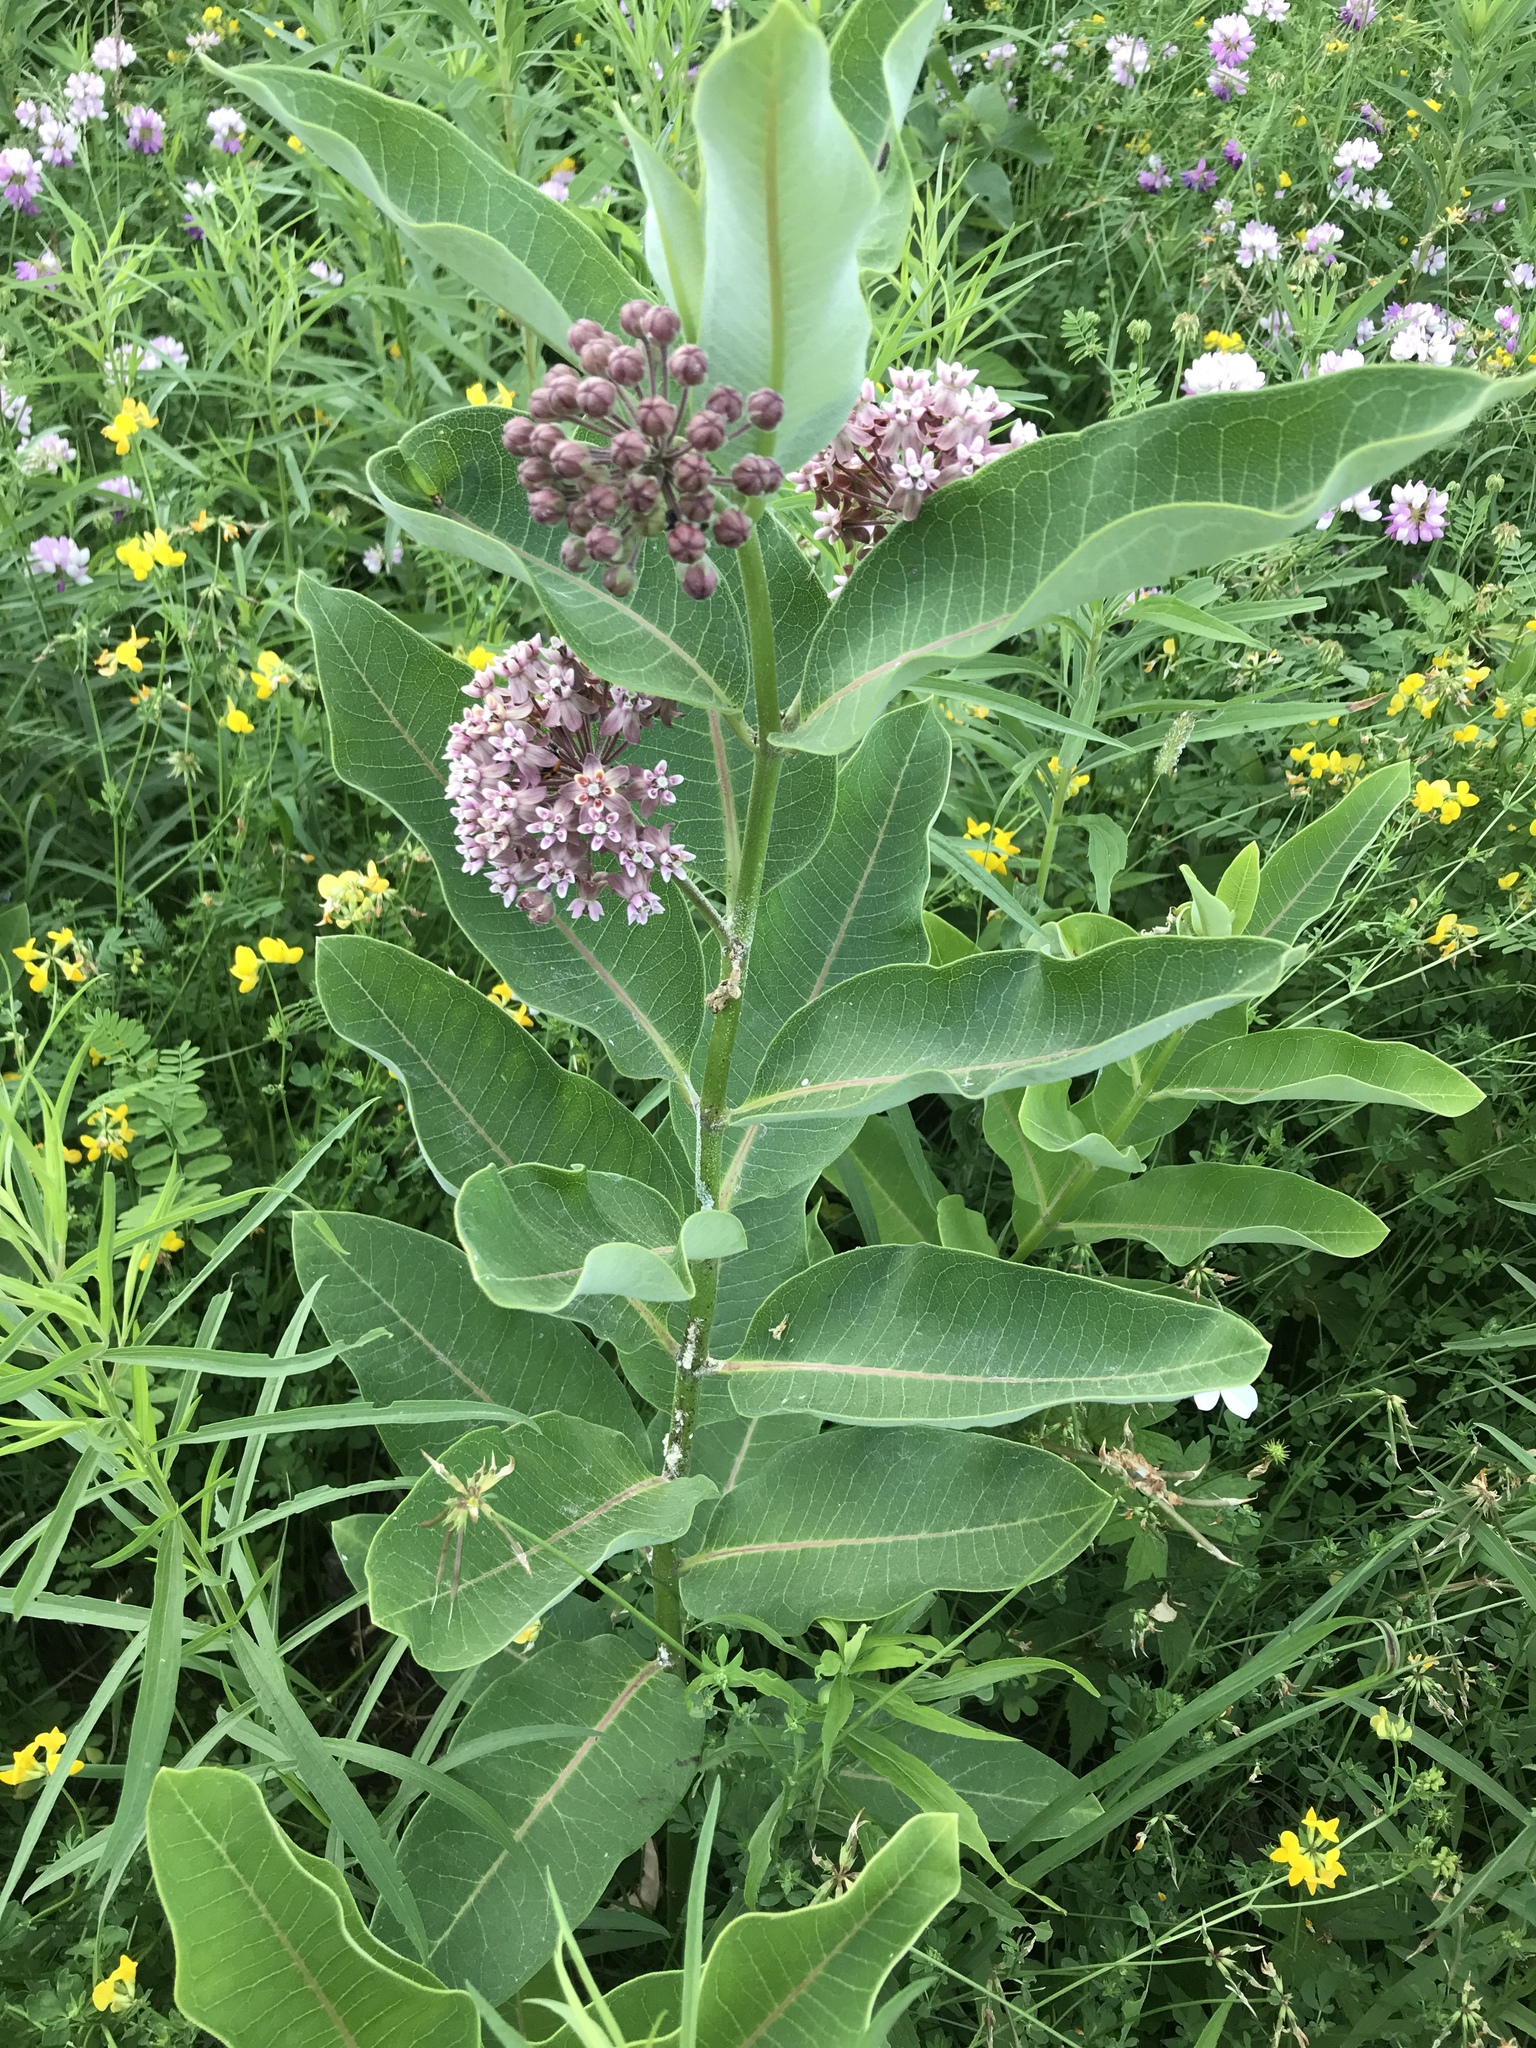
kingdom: Plantae
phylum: Tracheophyta
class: Magnoliopsida
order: Gentianales
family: Apocynaceae
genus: Asclepias
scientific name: Asclepias syriaca
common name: Common milkweed
